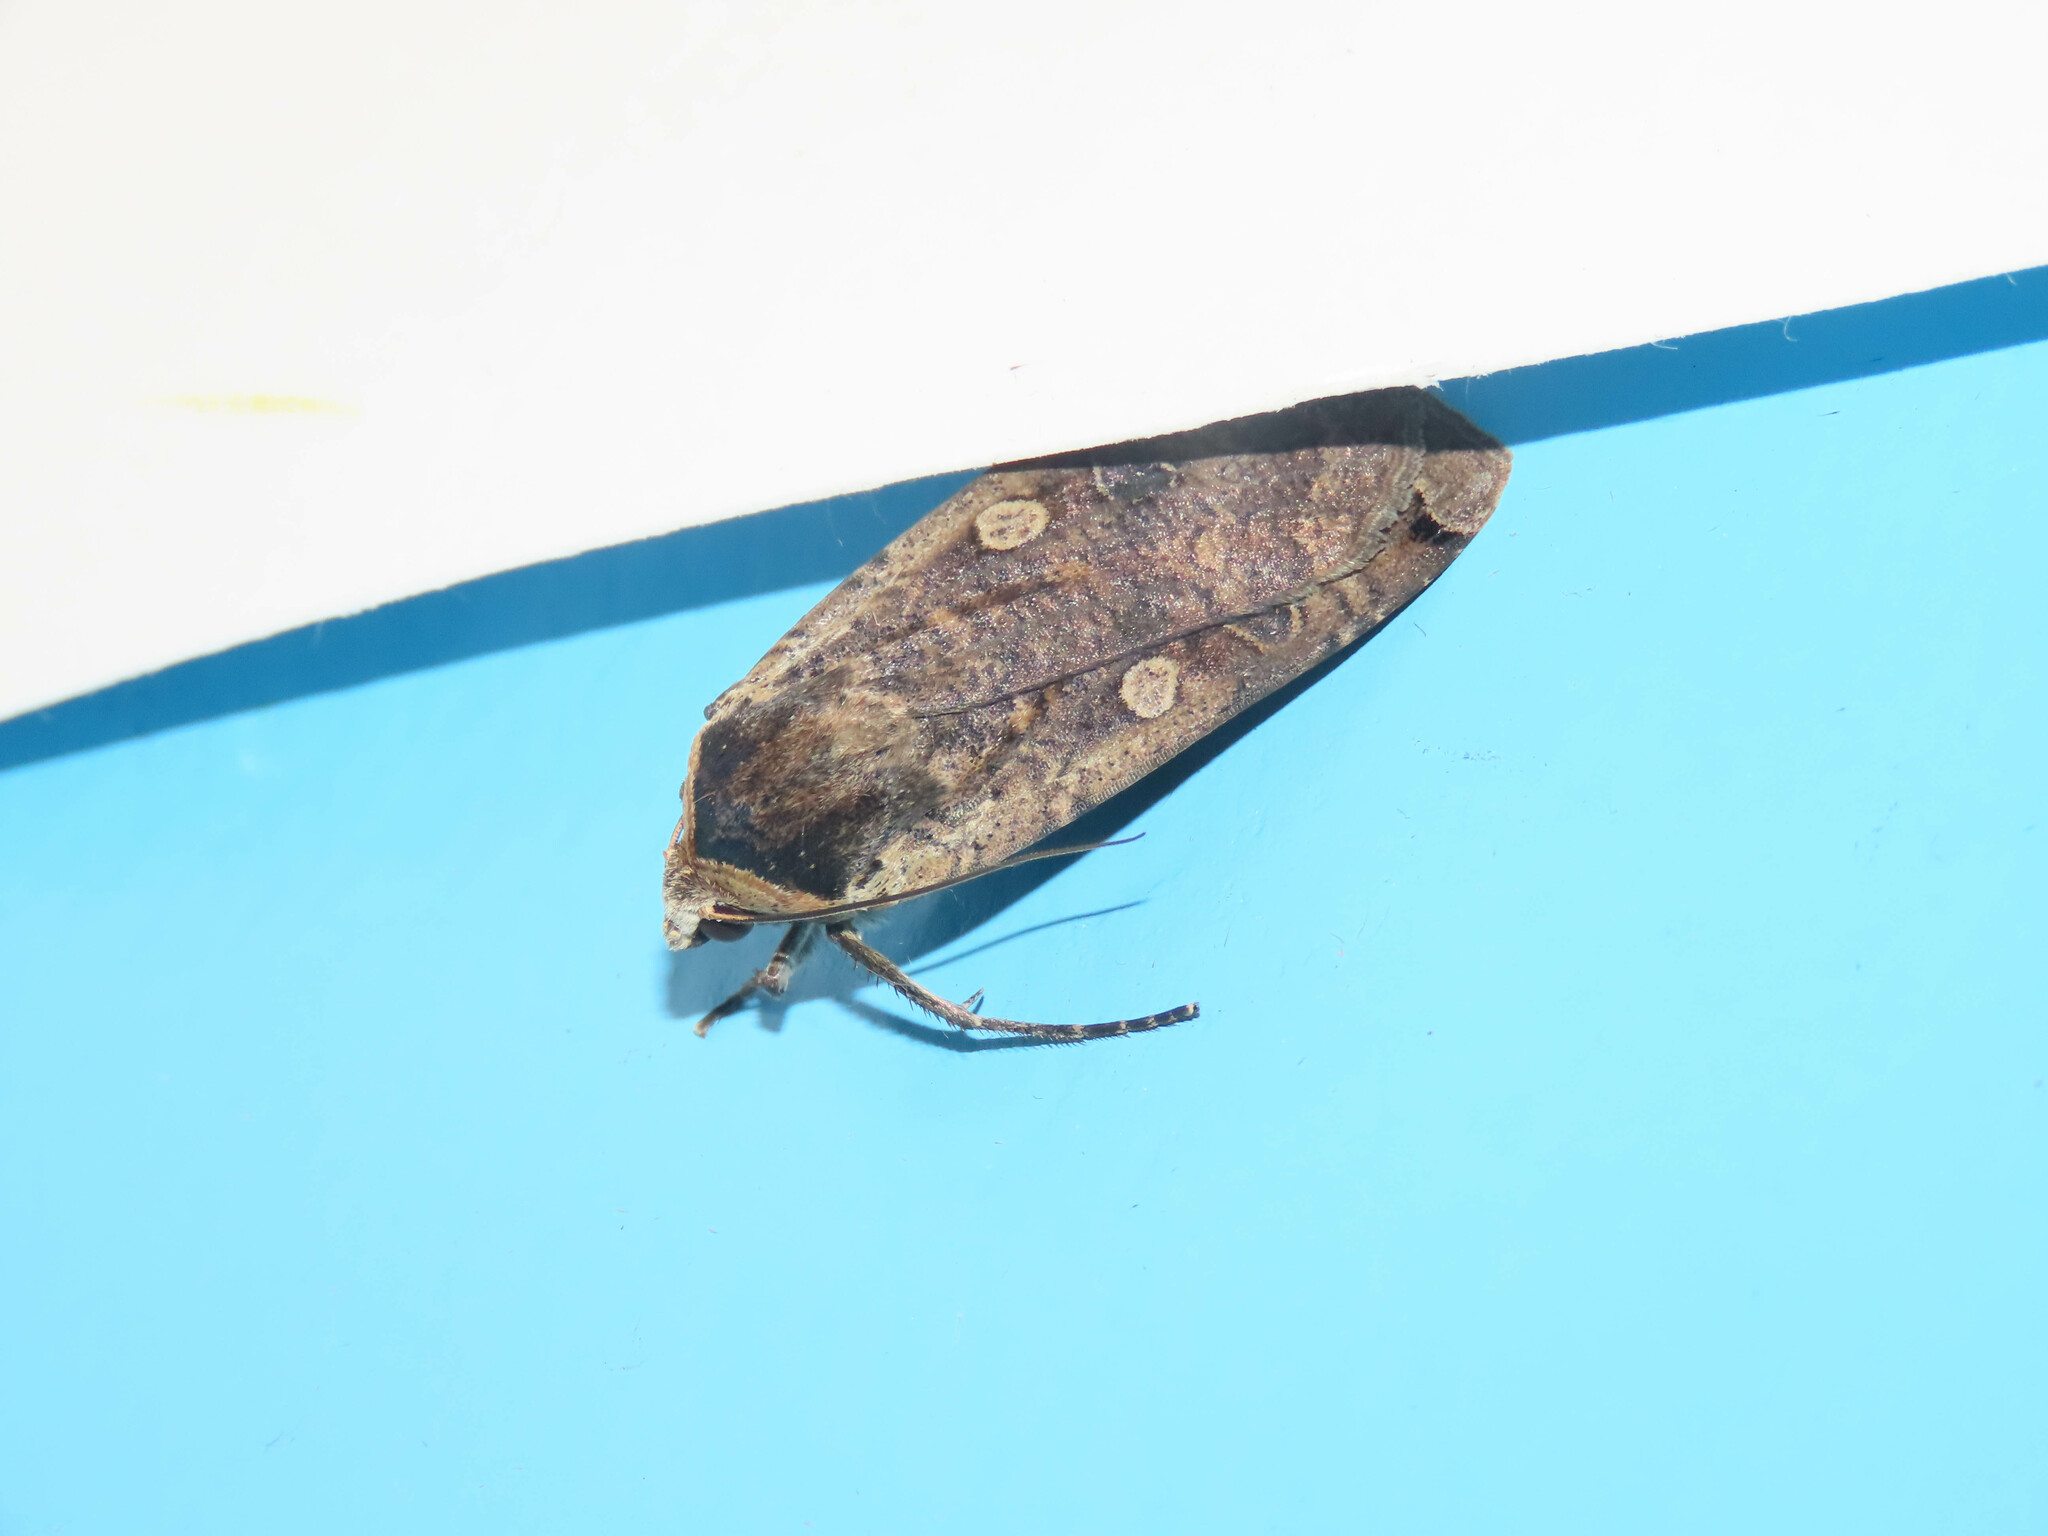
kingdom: Animalia
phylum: Arthropoda
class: Insecta
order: Lepidoptera
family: Noctuidae
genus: Noctua
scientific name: Noctua pronuba
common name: Large yellow underwing
